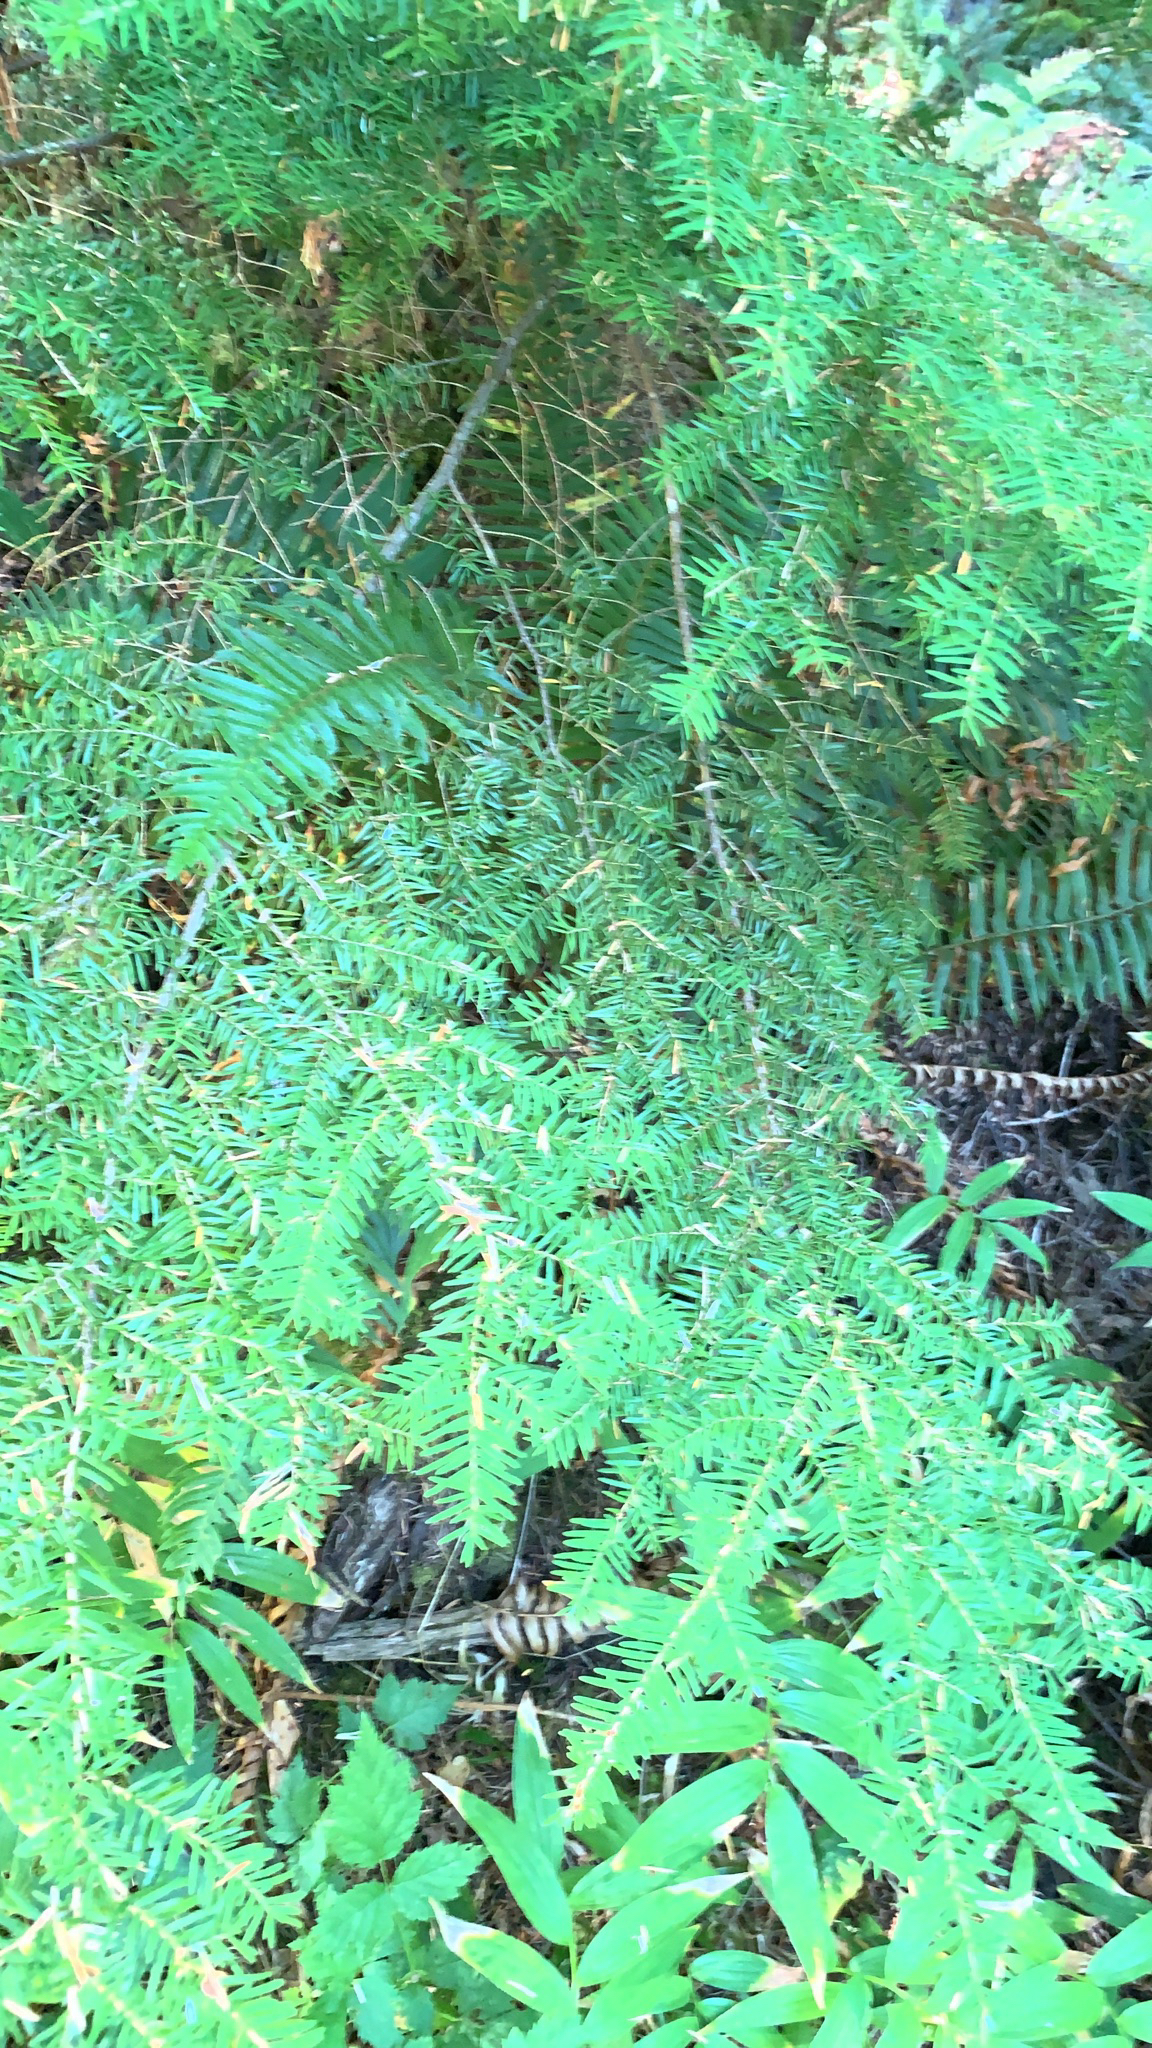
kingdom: Plantae
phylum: Tracheophyta
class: Pinopsida
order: Pinales
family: Pinaceae
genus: Tsuga
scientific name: Tsuga heterophylla
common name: Western hemlock
